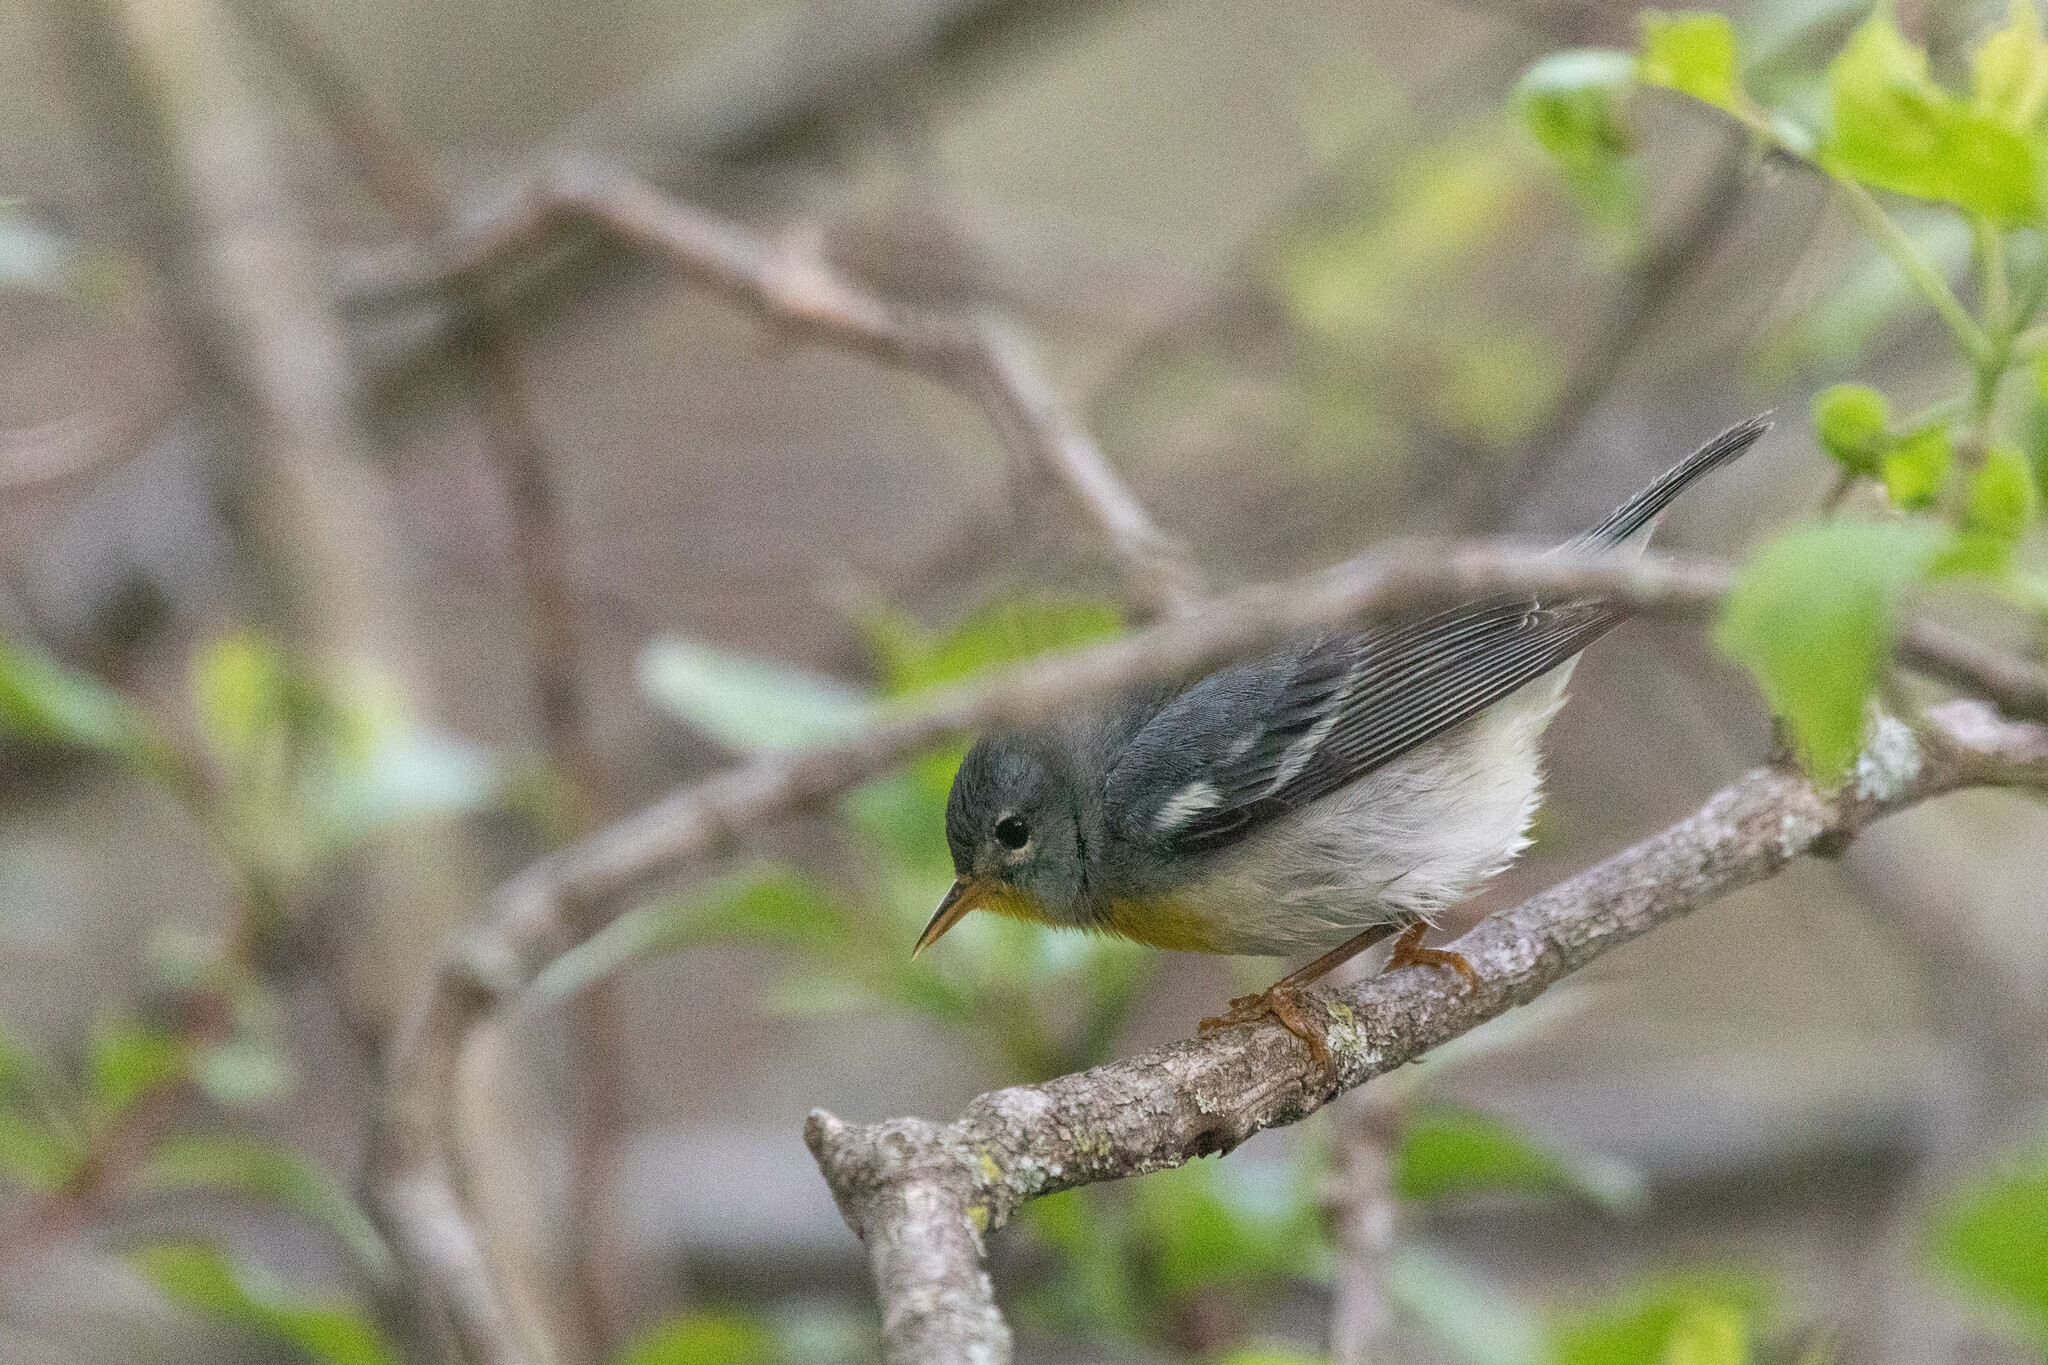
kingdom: Animalia
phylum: Chordata
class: Aves
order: Passeriformes
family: Parulidae
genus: Setophaga
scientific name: Setophaga americana
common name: Northern parula
